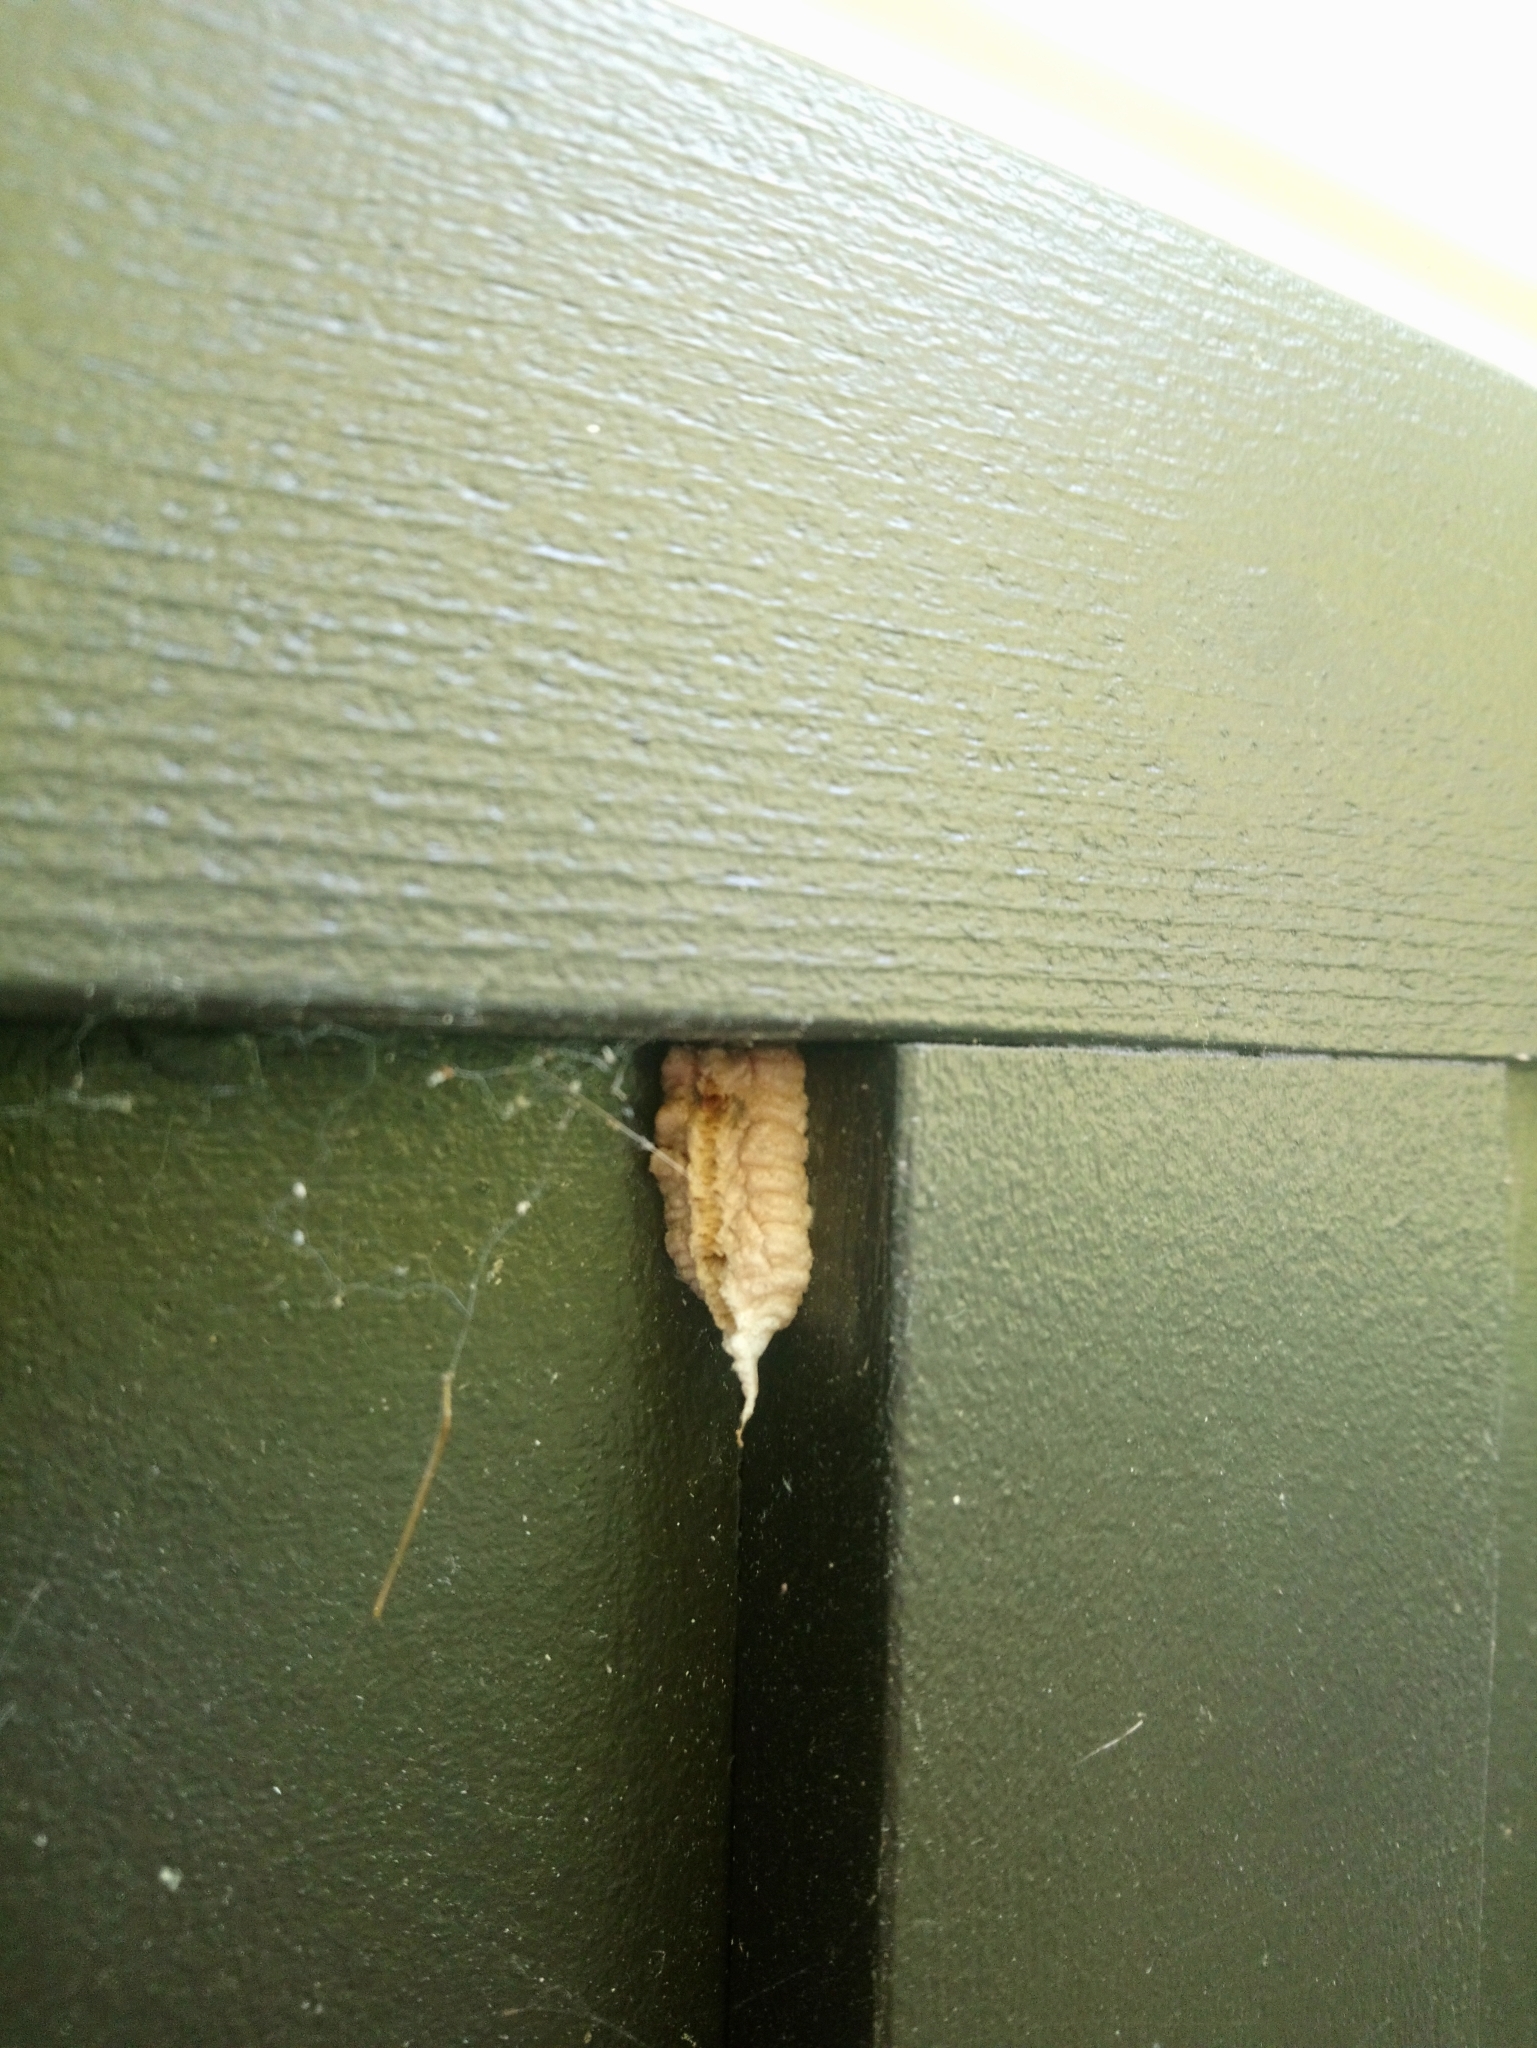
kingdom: Animalia
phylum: Arthropoda
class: Insecta
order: Mantodea
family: Miomantidae
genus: Miomantis
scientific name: Miomantis caffra
